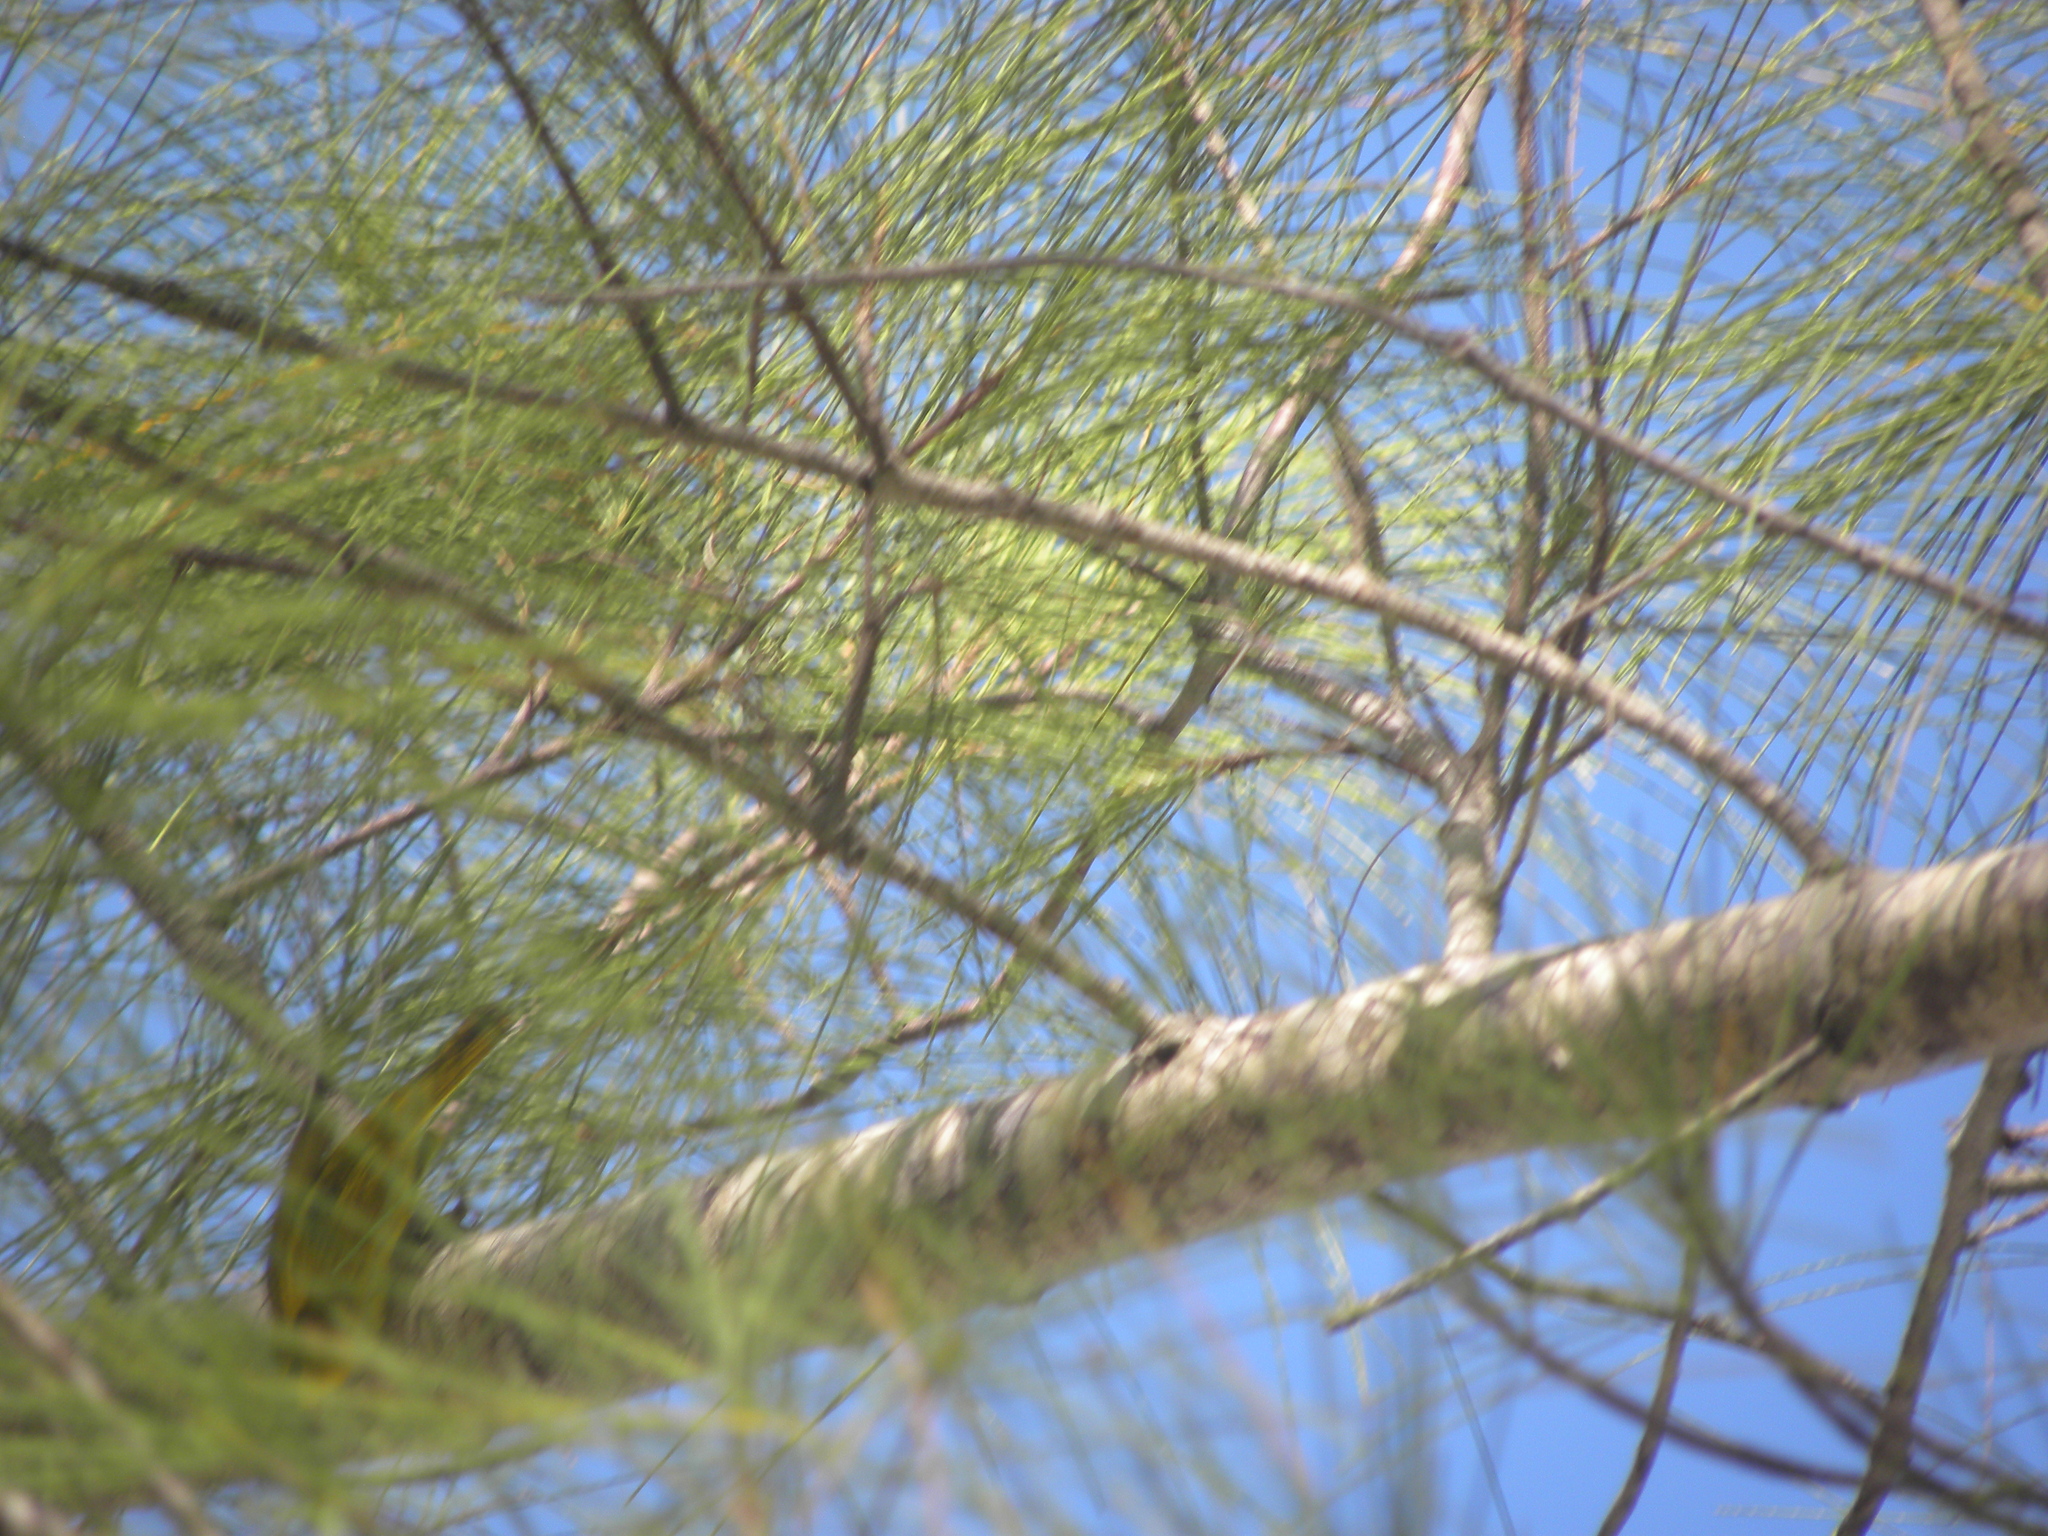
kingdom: Animalia
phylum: Chordata
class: Aves
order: Passeriformes
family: Parulidae
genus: Setophaga
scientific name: Setophaga petechia
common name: Yellow warbler
